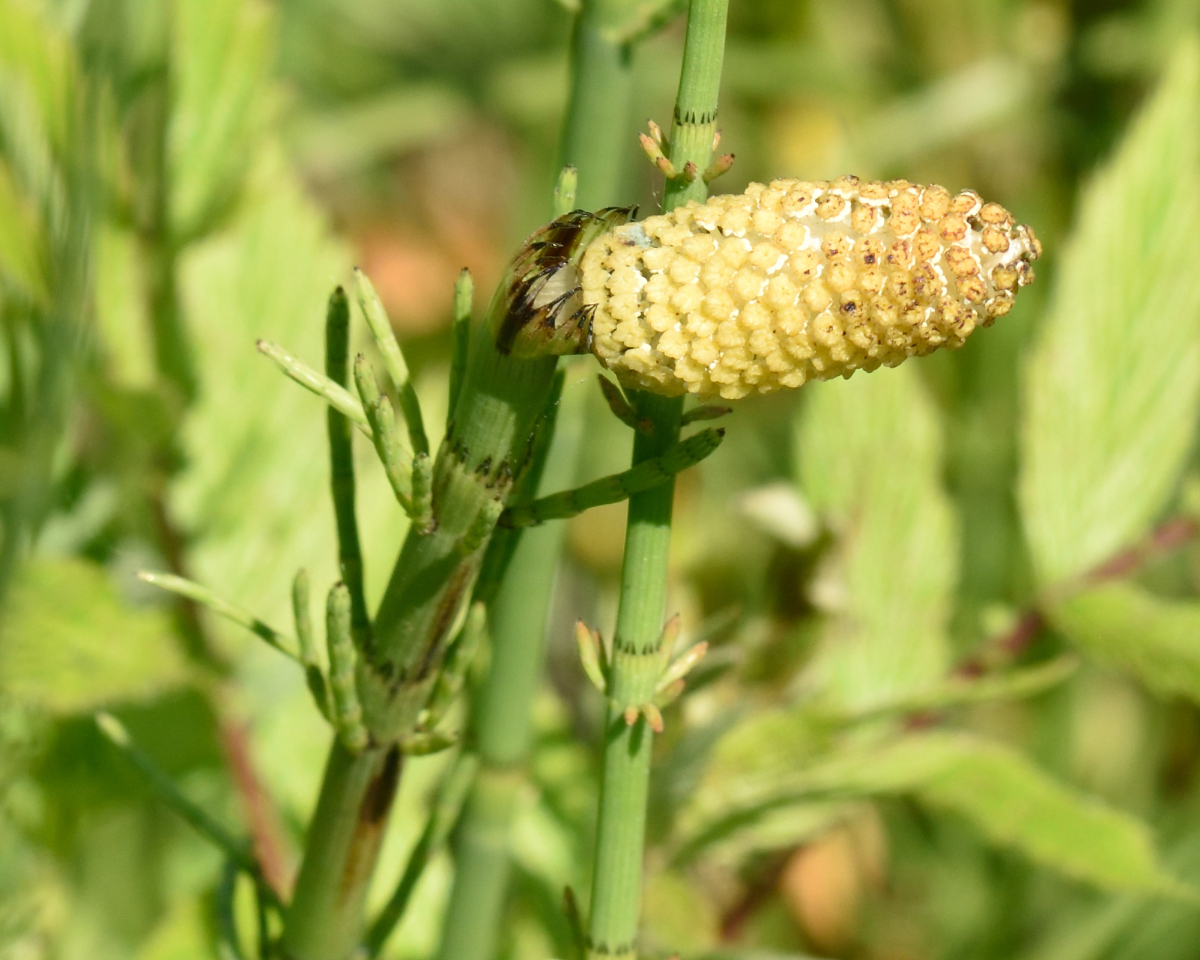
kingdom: Plantae
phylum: Tracheophyta
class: Polypodiopsida
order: Equisetales
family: Equisetaceae
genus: Equisetum
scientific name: Equisetum fluviatile
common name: Water horsetail
